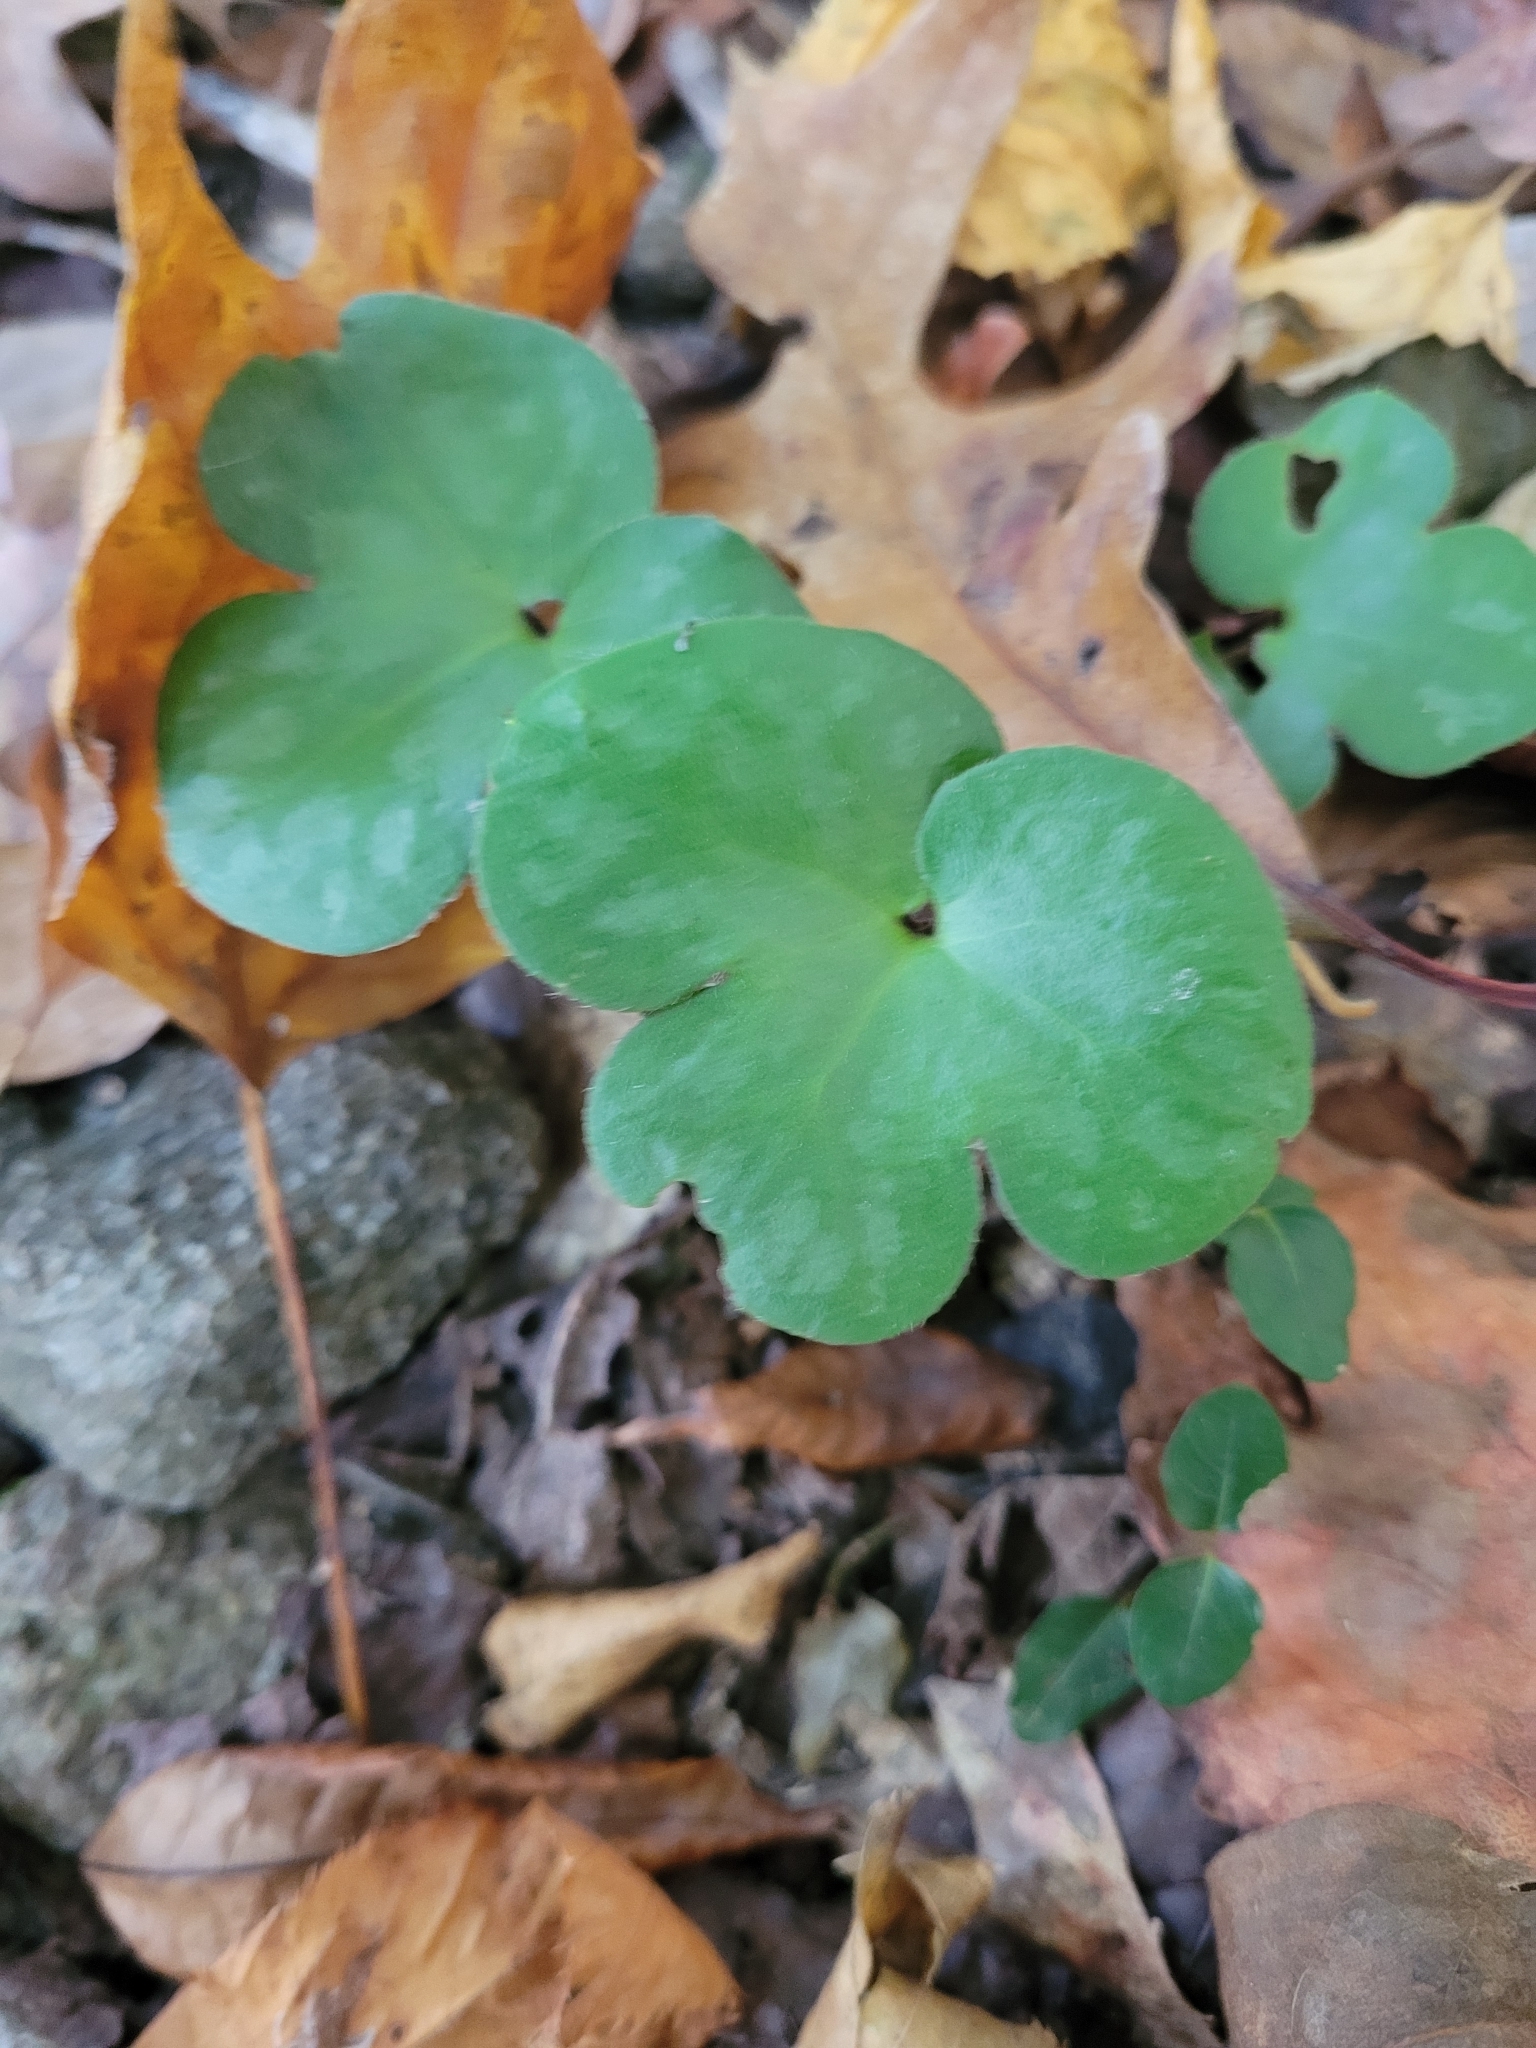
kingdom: Plantae
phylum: Tracheophyta
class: Magnoliopsida
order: Ranunculales
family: Ranunculaceae
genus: Hepatica
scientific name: Hepatica americana
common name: American hepatica
